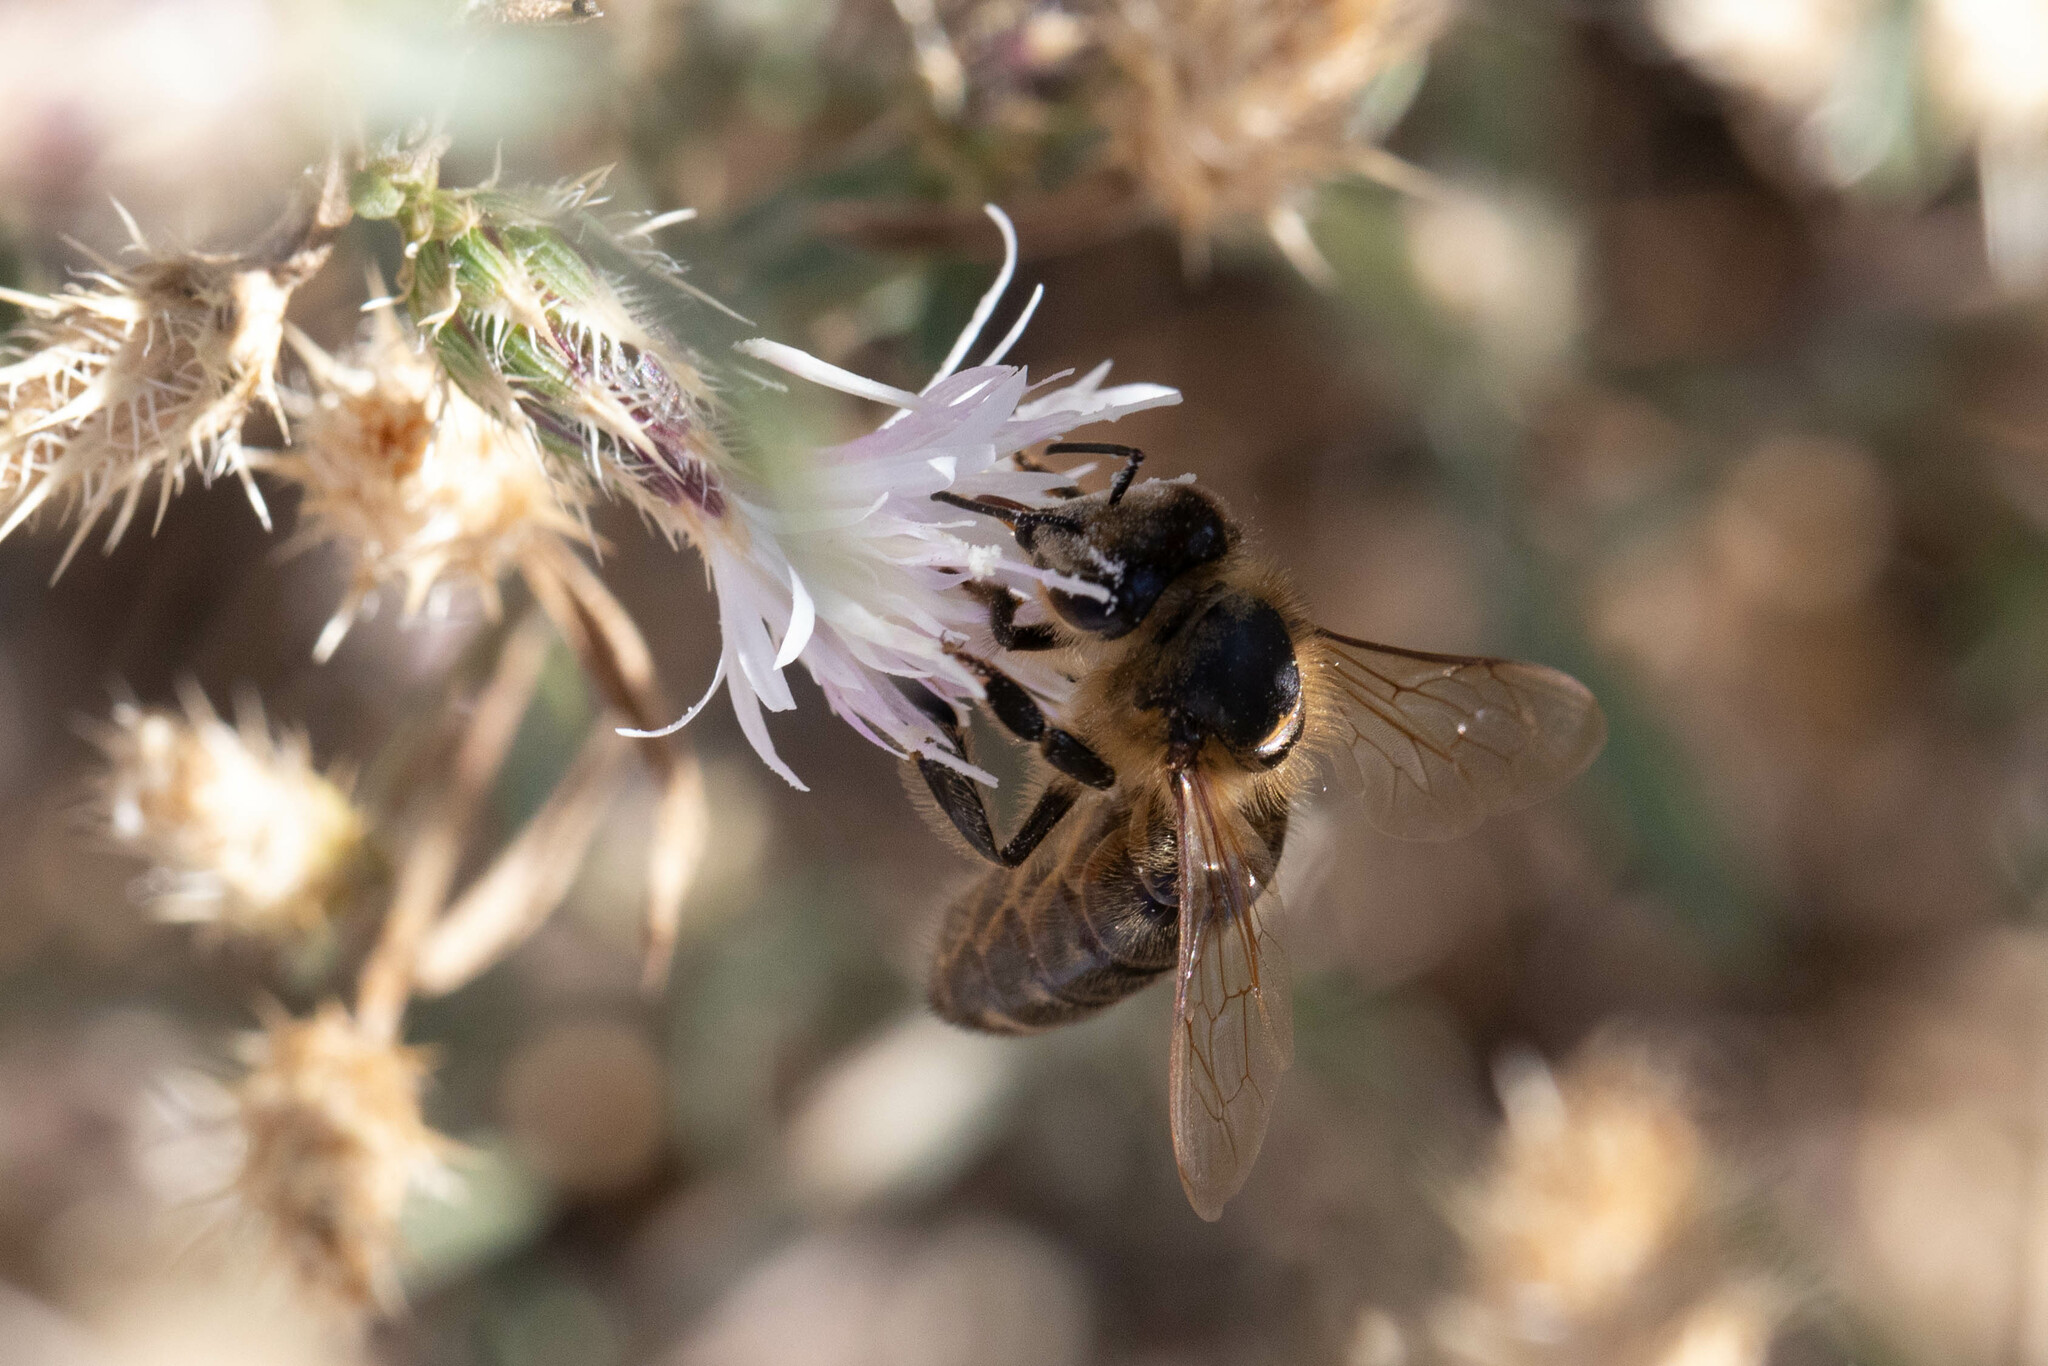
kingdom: Animalia
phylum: Arthropoda
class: Insecta
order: Hymenoptera
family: Apidae
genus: Apis
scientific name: Apis mellifera
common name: Honey bee
